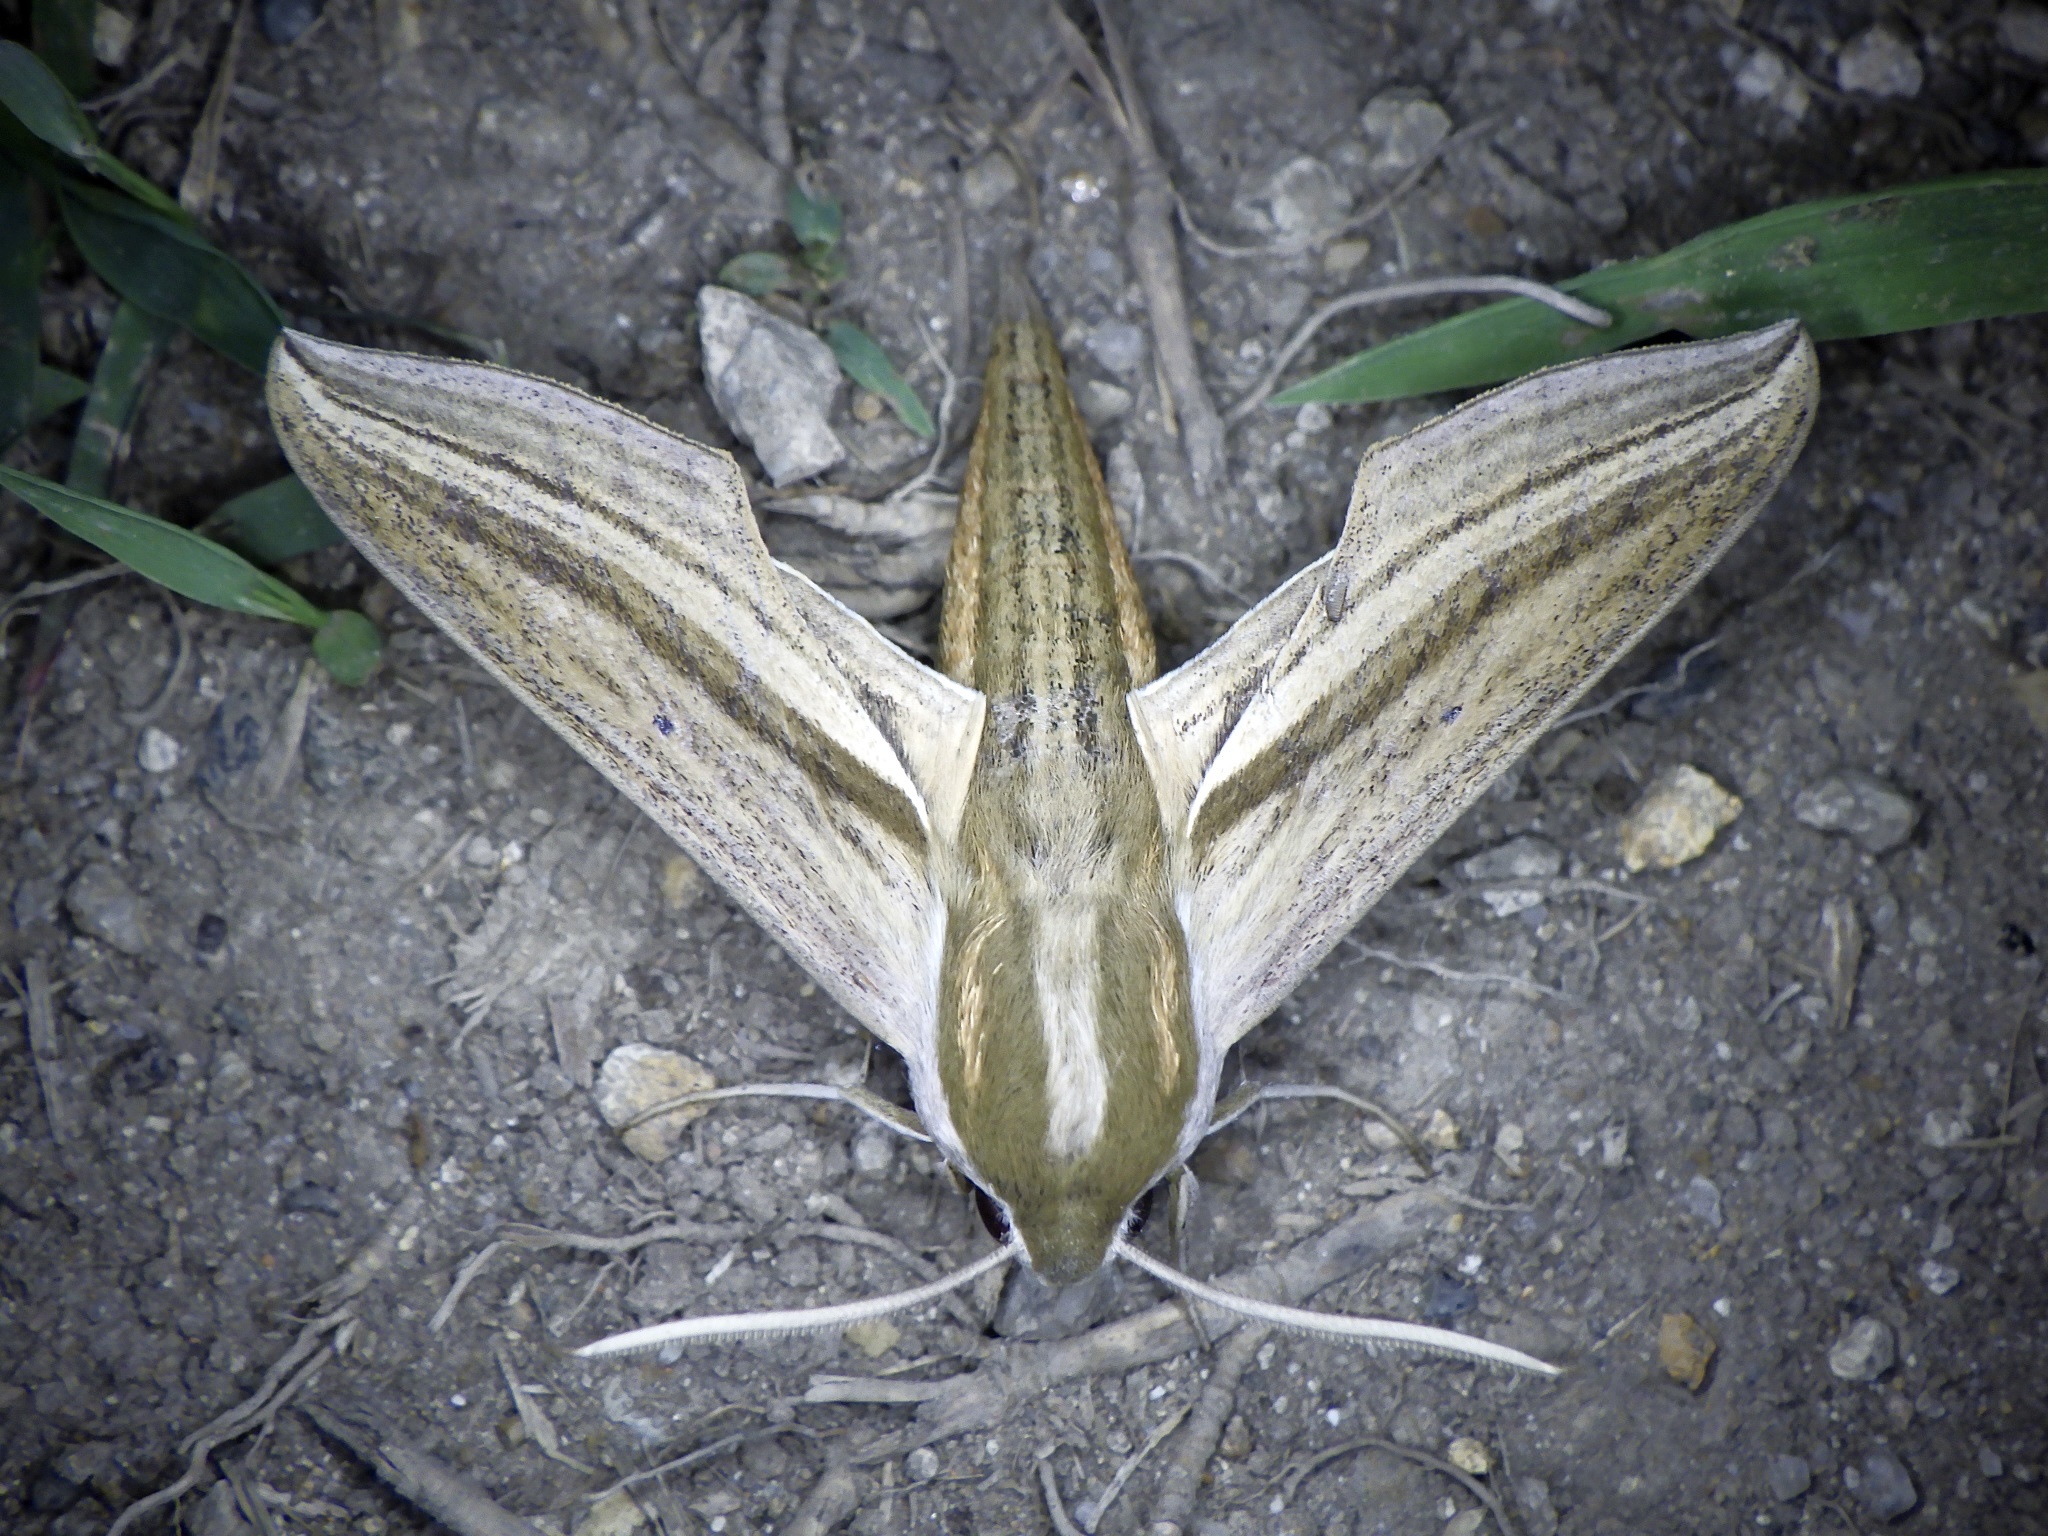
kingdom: Animalia
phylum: Arthropoda
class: Insecta
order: Lepidoptera
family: Sphingidae
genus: Theretra
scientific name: Theretra oldenlandiae
